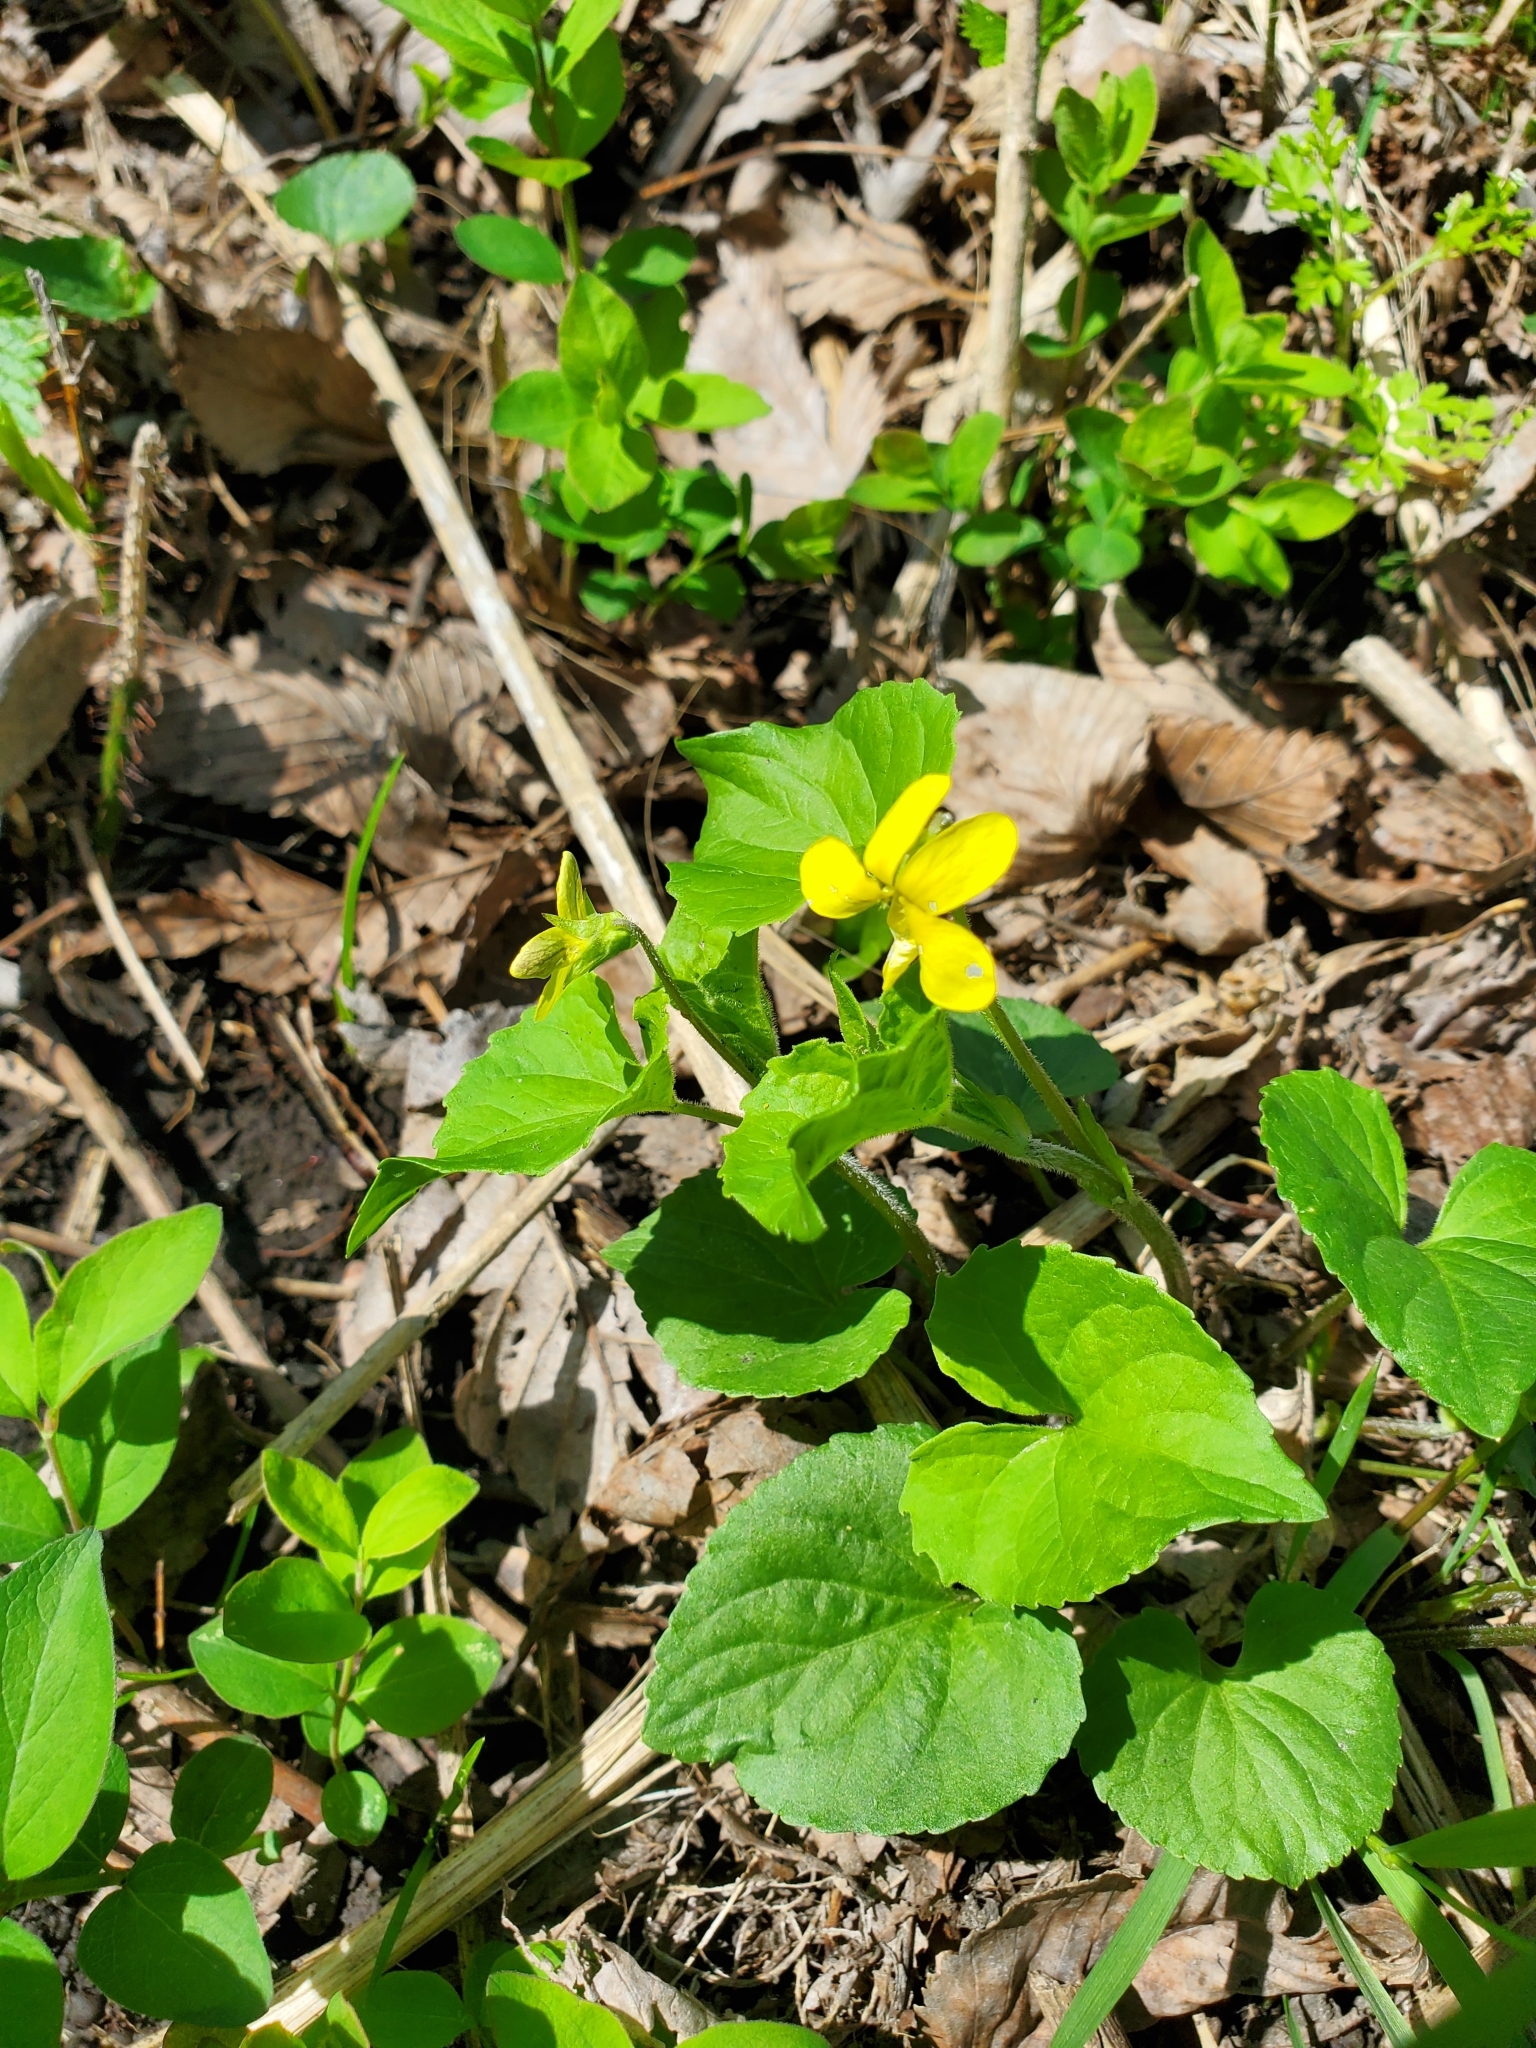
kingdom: Plantae
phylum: Tracheophyta
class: Magnoliopsida
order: Malpighiales
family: Violaceae
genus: Viola
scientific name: Viola eriocarpa
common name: Smooth yellow violet
